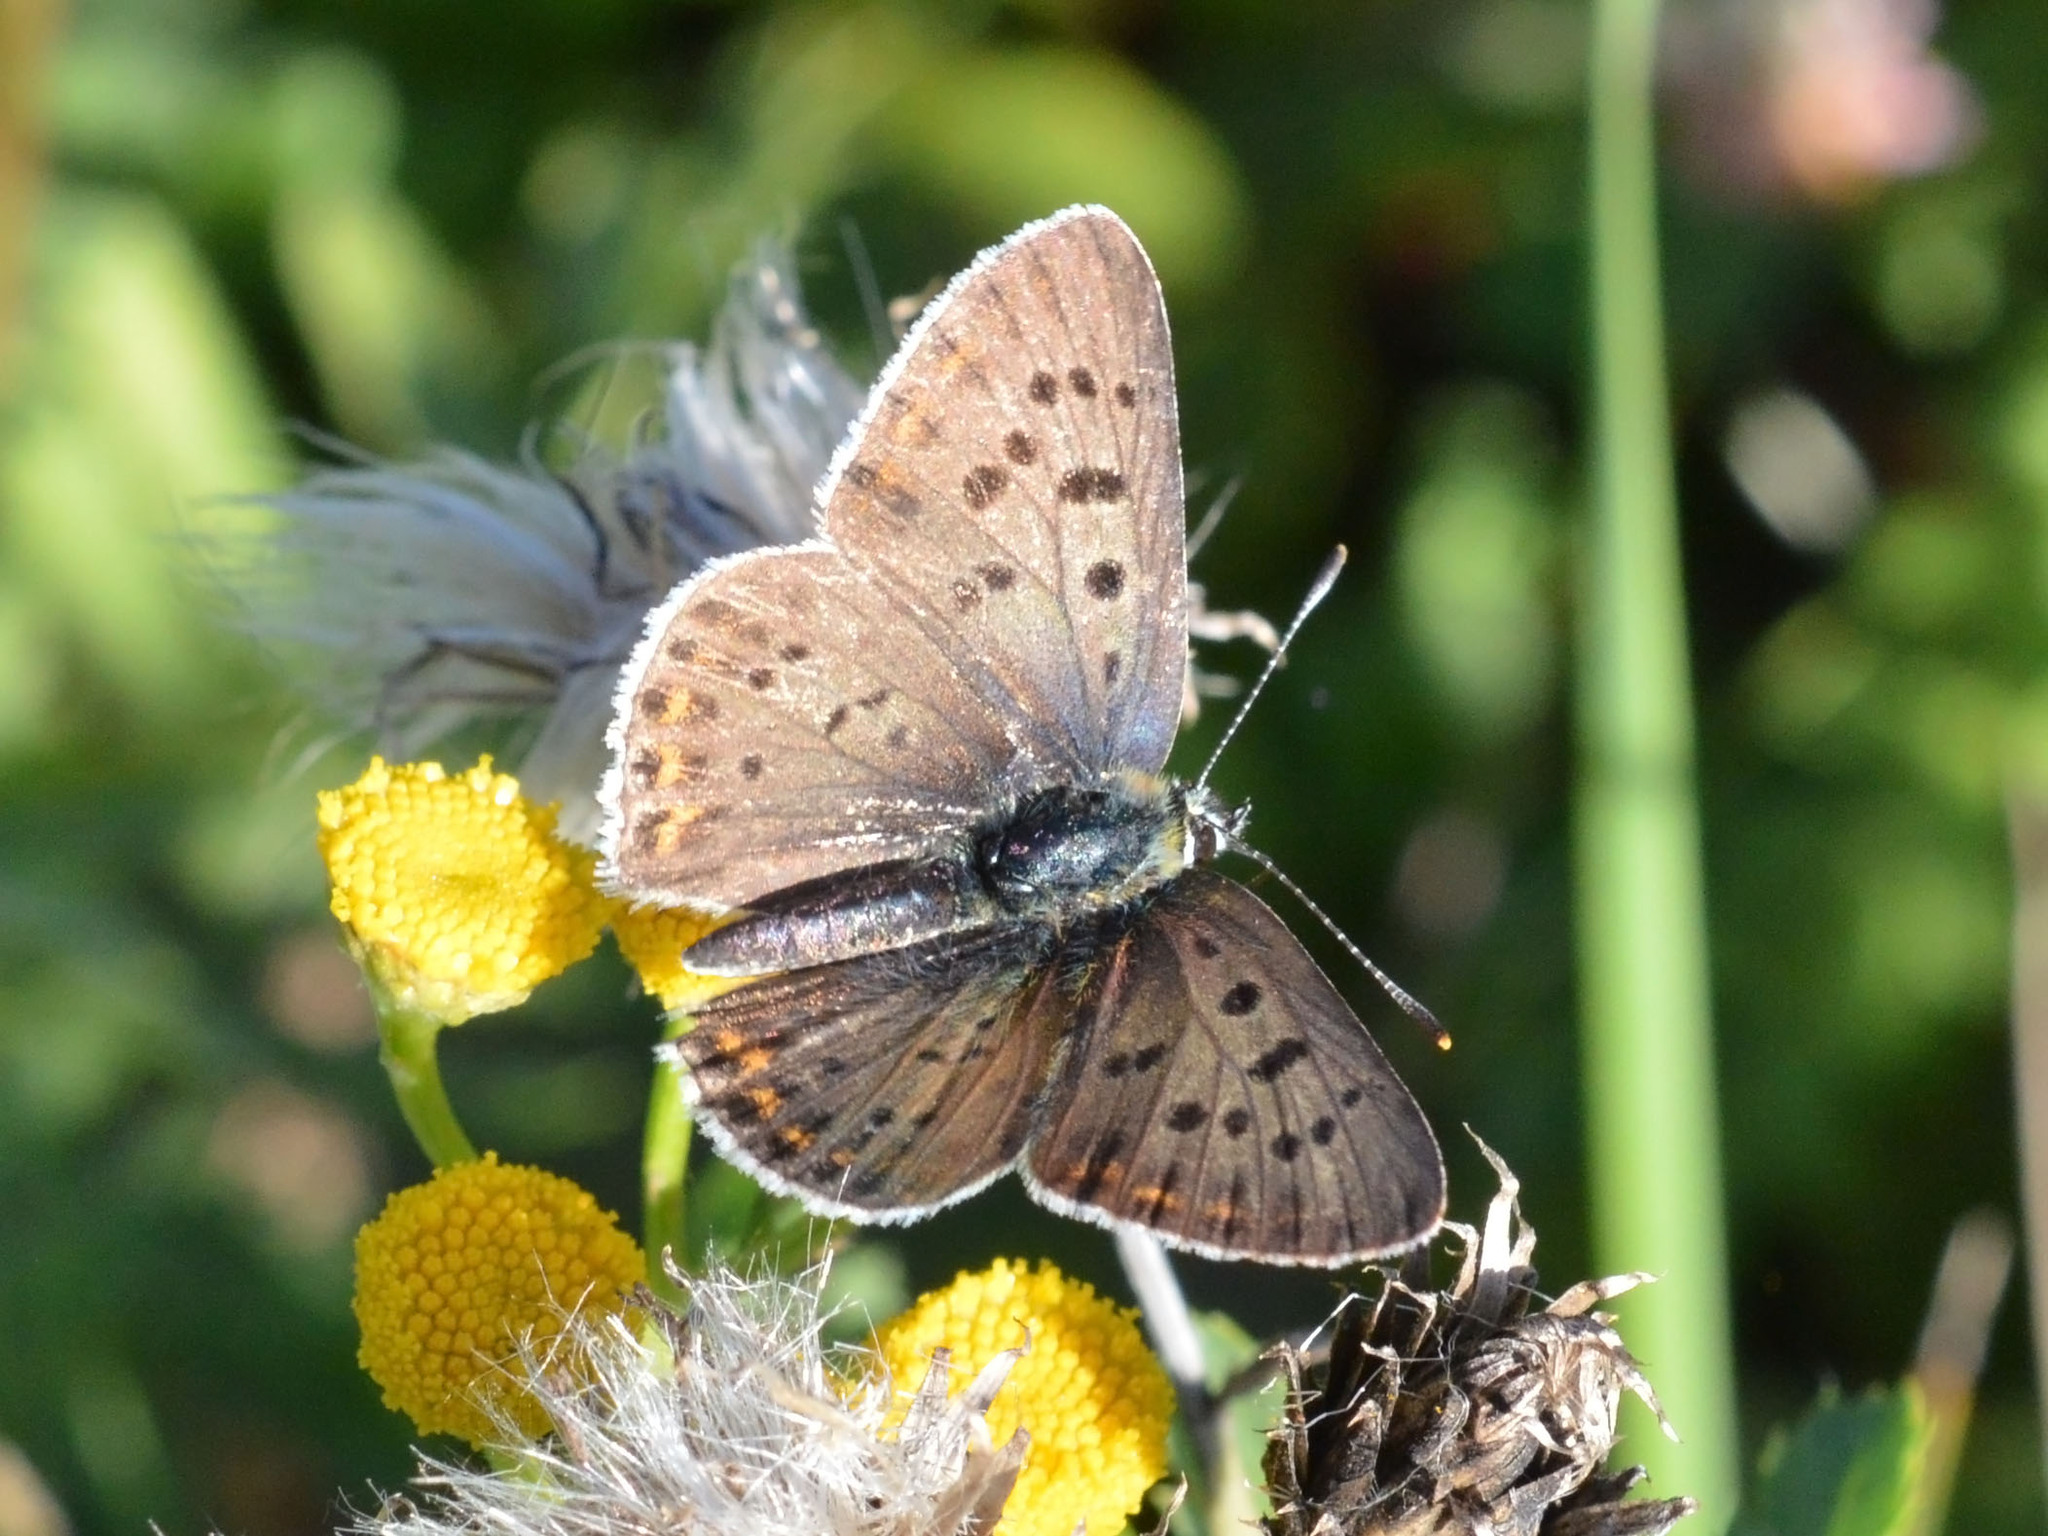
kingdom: Animalia
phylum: Arthropoda
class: Insecta
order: Lepidoptera
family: Lycaenidae
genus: Loweia
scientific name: Loweia tityrus
